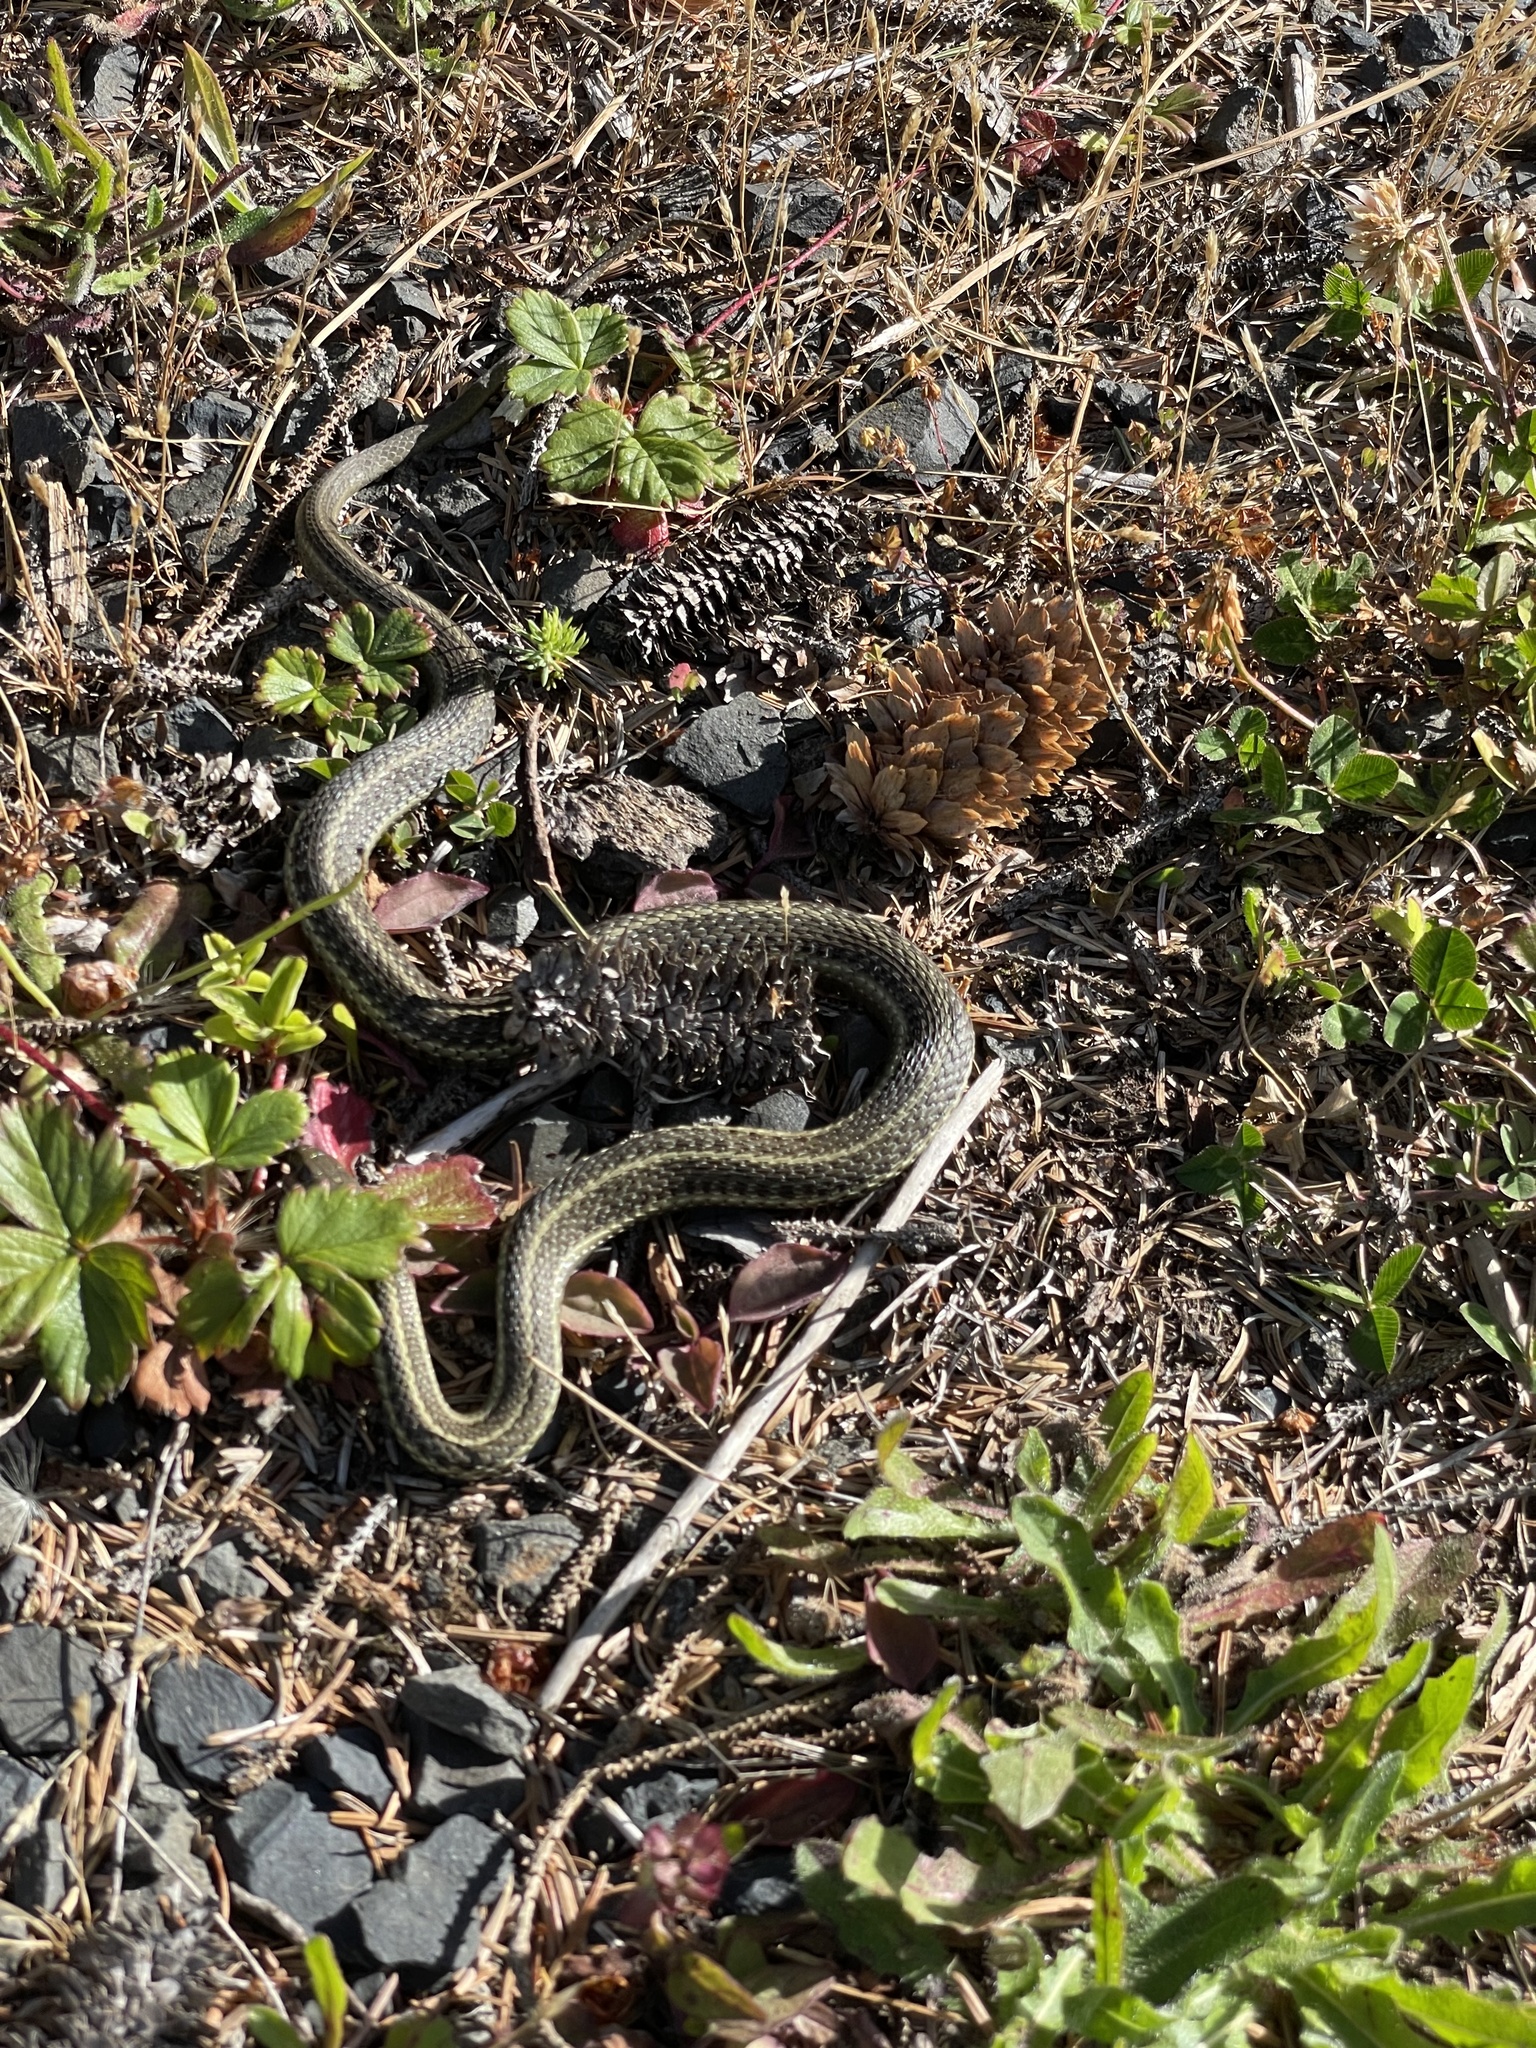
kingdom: Animalia
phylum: Chordata
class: Squamata
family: Colubridae
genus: Thamnophis
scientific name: Thamnophis ordinoides
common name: Northwestern garter snake
